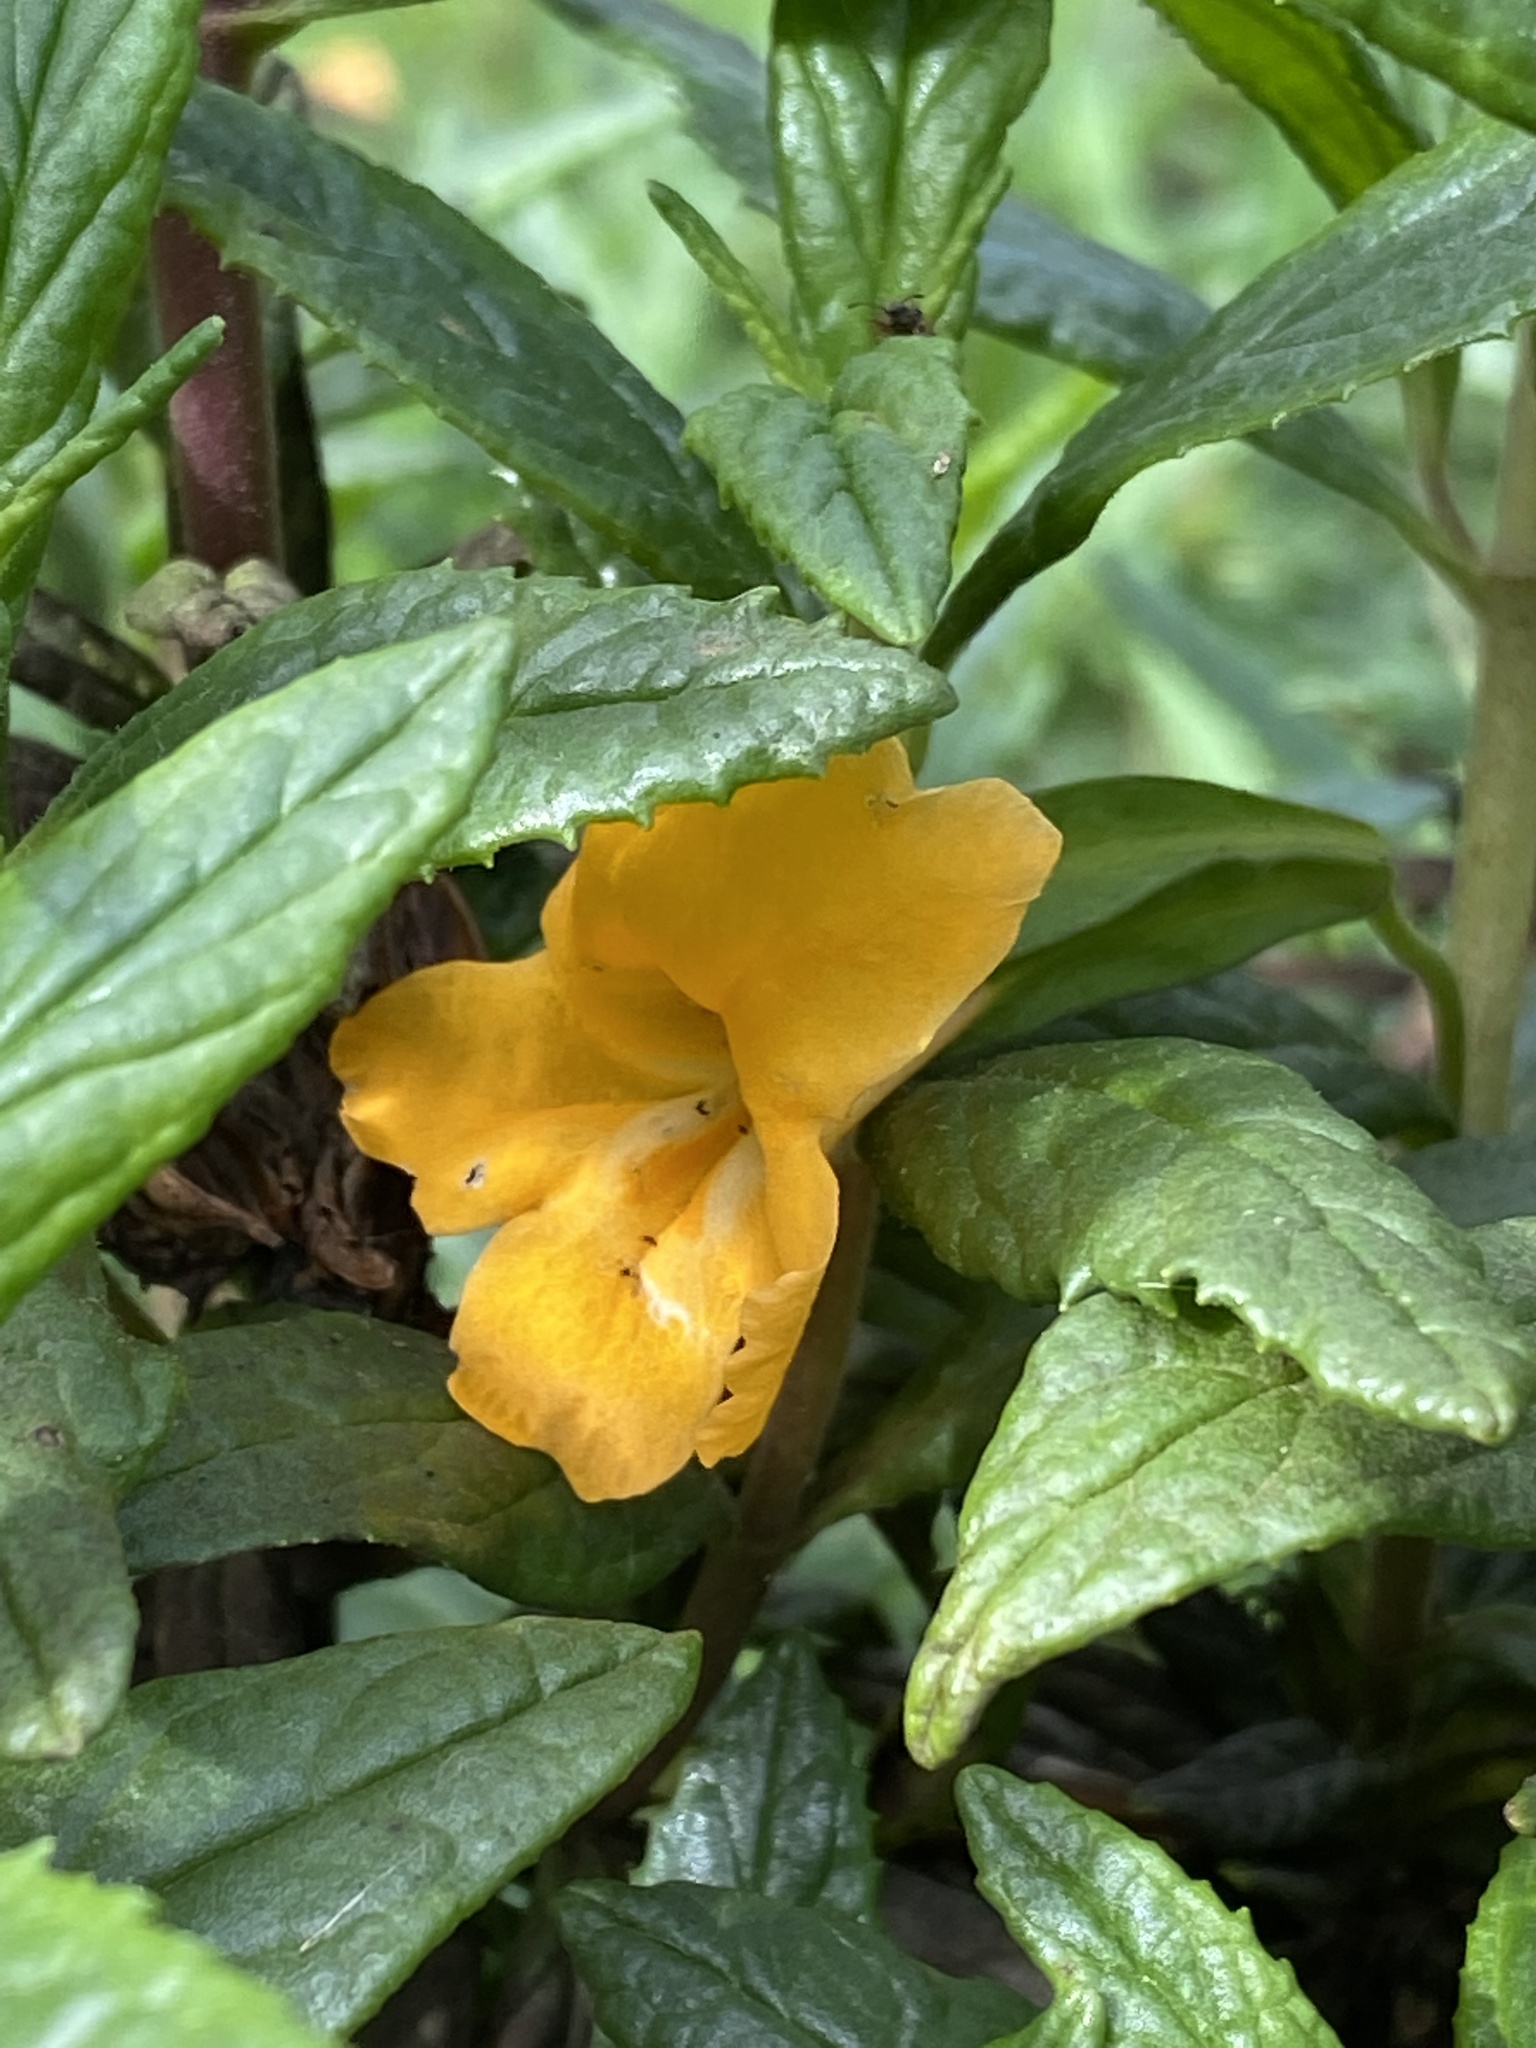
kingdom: Plantae
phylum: Tracheophyta
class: Magnoliopsida
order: Lamiales
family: Phrymaceae
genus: Diplacus
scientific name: Diplacus aurantiacus
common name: Bush monkey-flower
